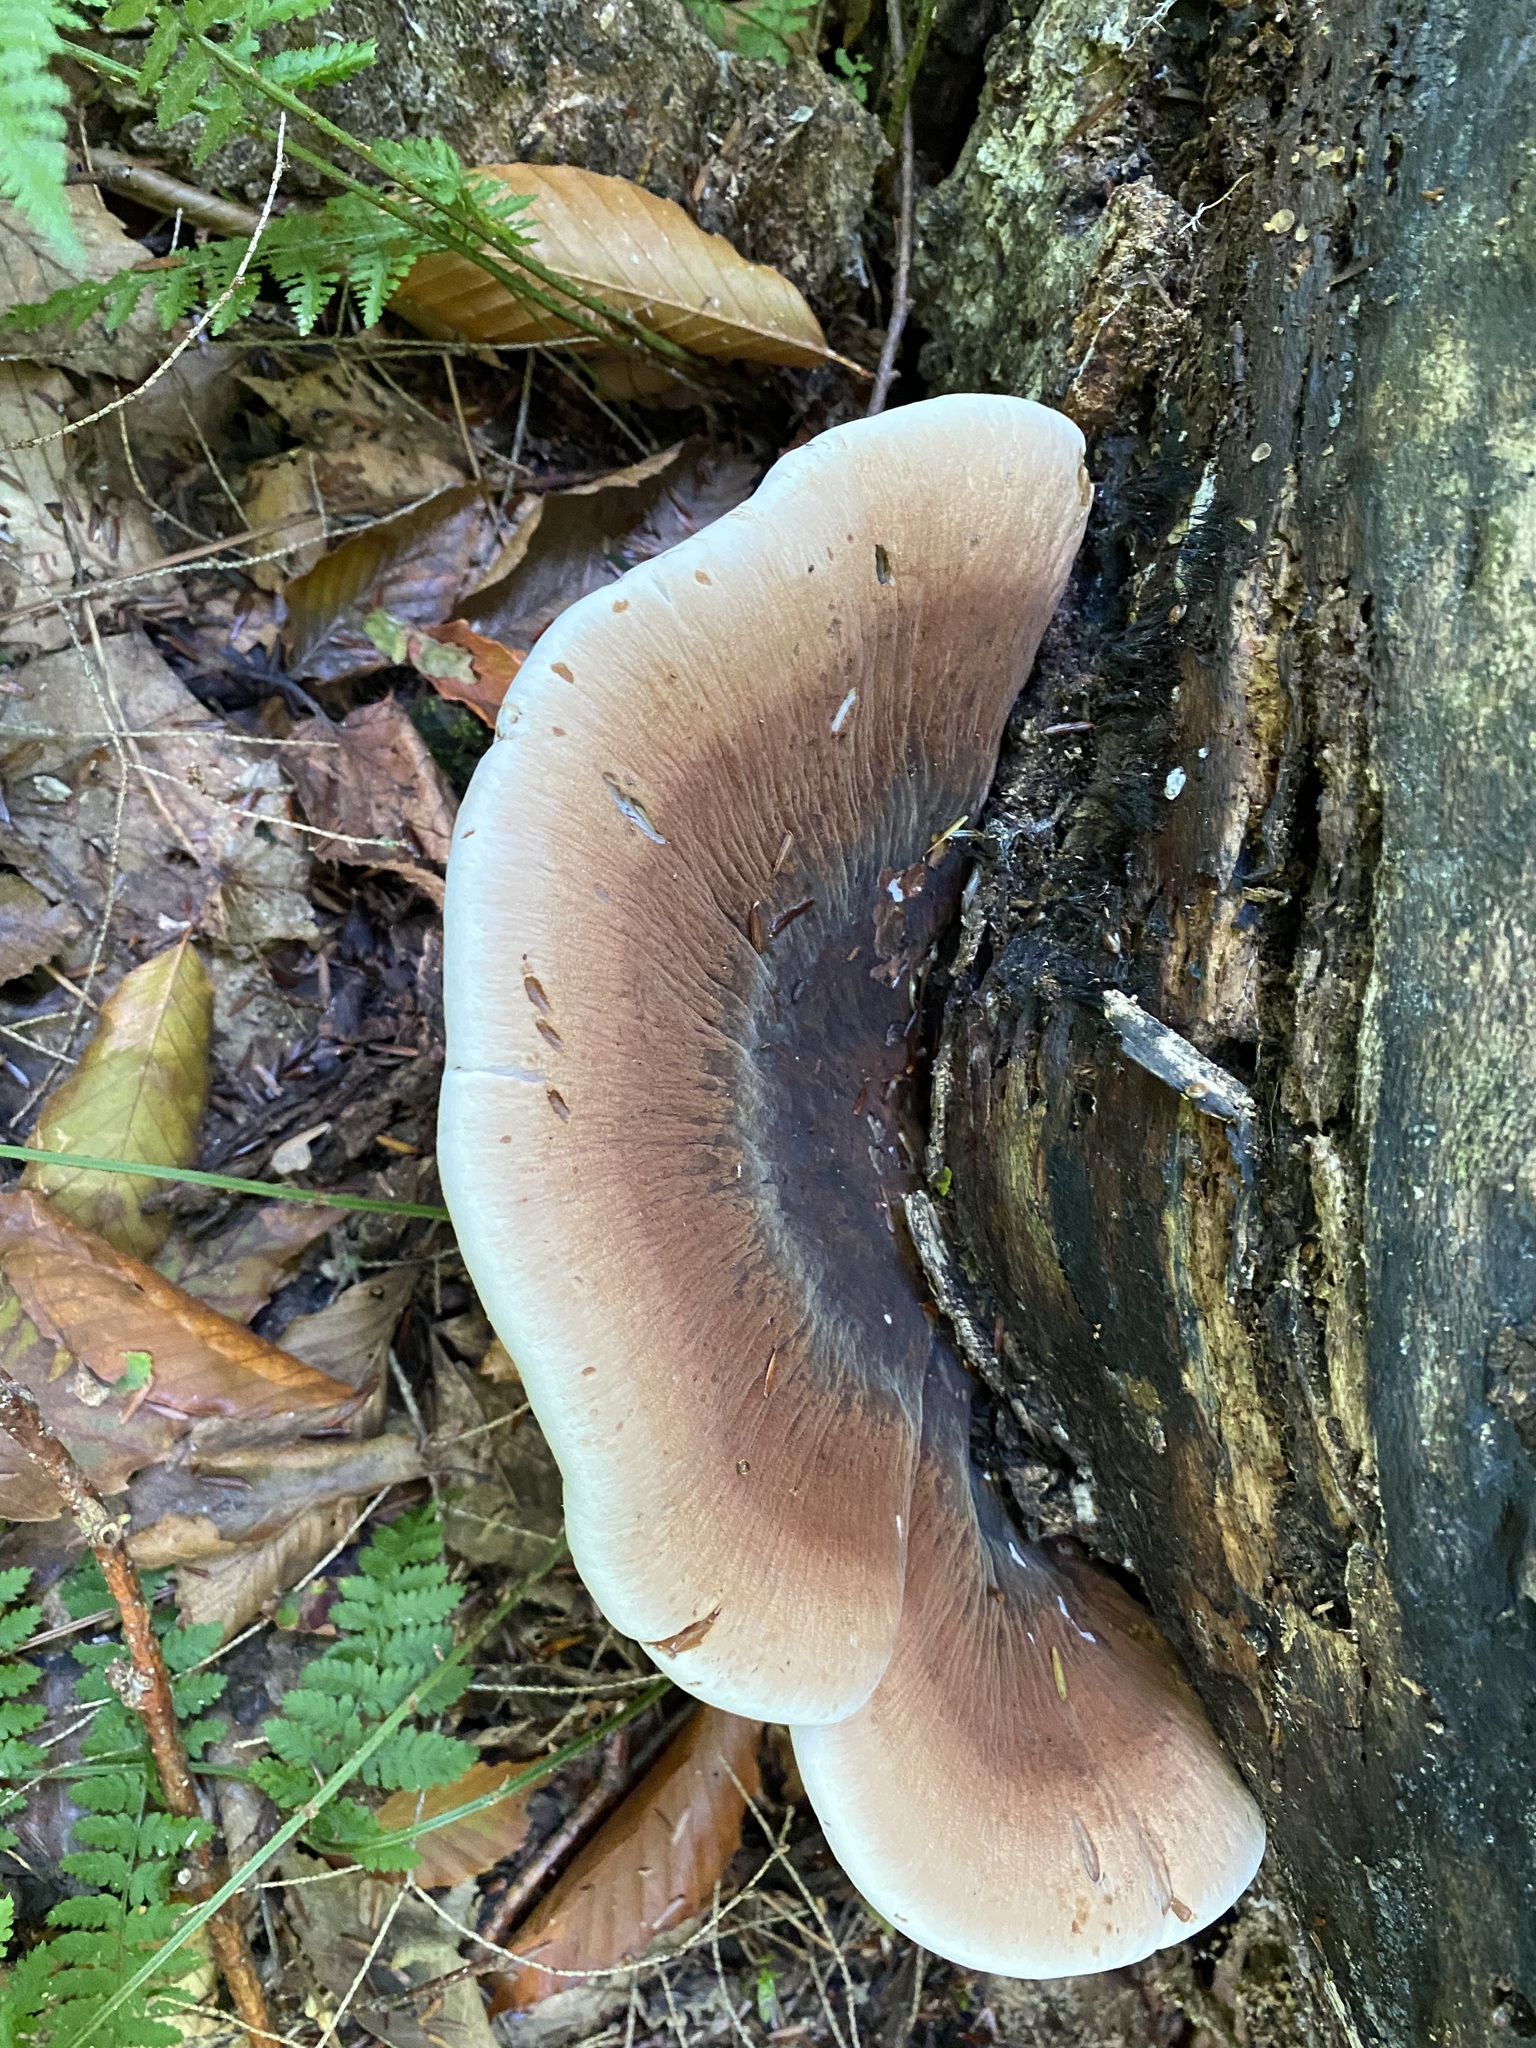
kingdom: Fungi
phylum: Basidiomycota
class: Agaricomycetes
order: Polyporales
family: Ischnodermataceae
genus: Ischnoderma
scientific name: Ischnoderma resinosum
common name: Resinous polypore
